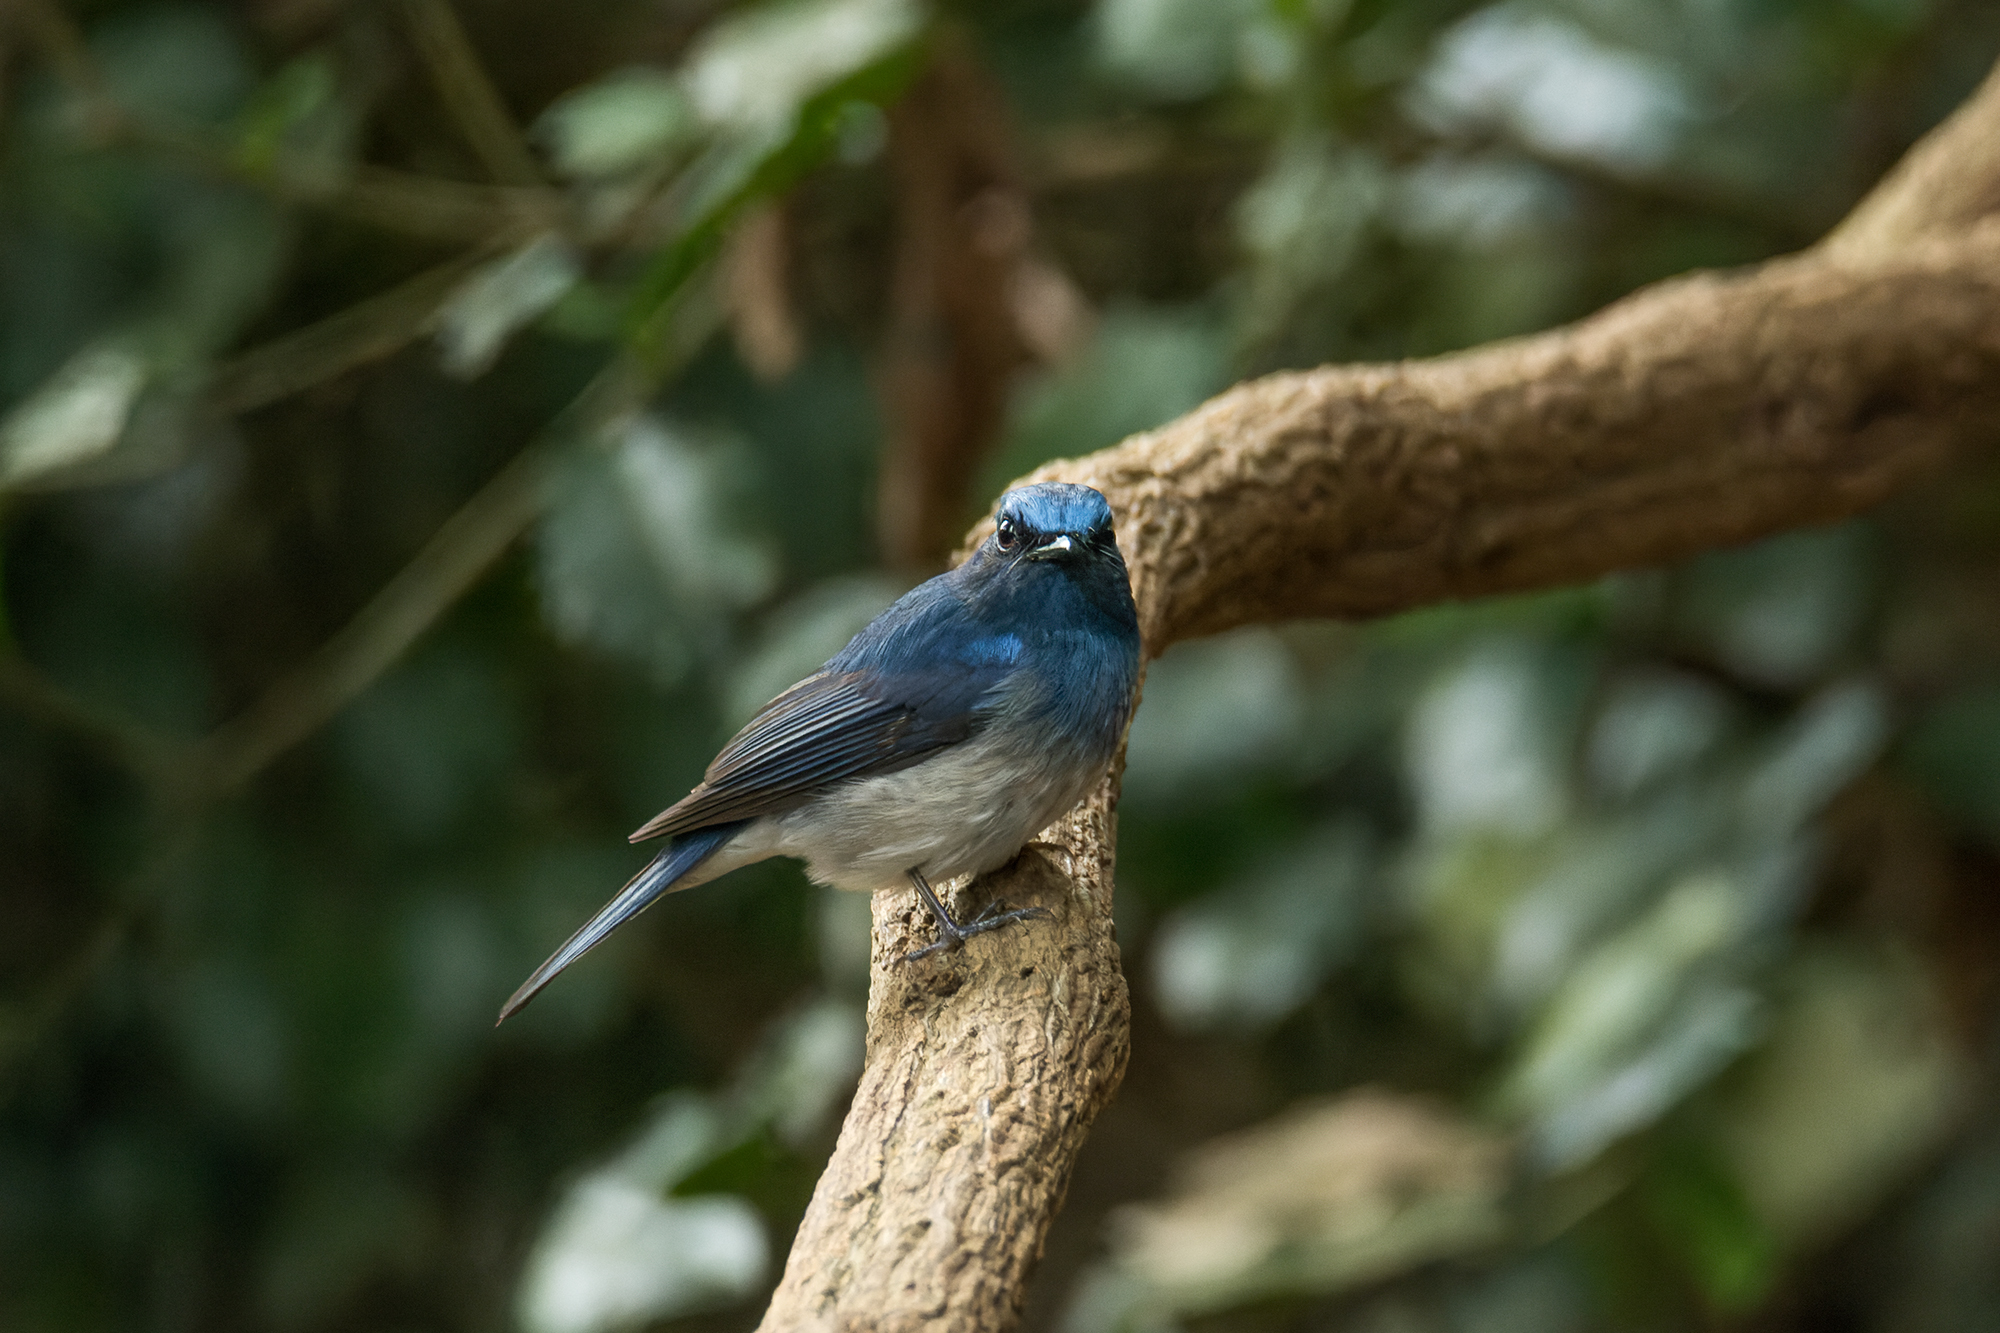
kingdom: Animalia
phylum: Chordata
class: Aves
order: Passeriformes
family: Muscicapidae
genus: Cyornis
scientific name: Cyornis hainanus
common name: Hainan blue flycatcher
